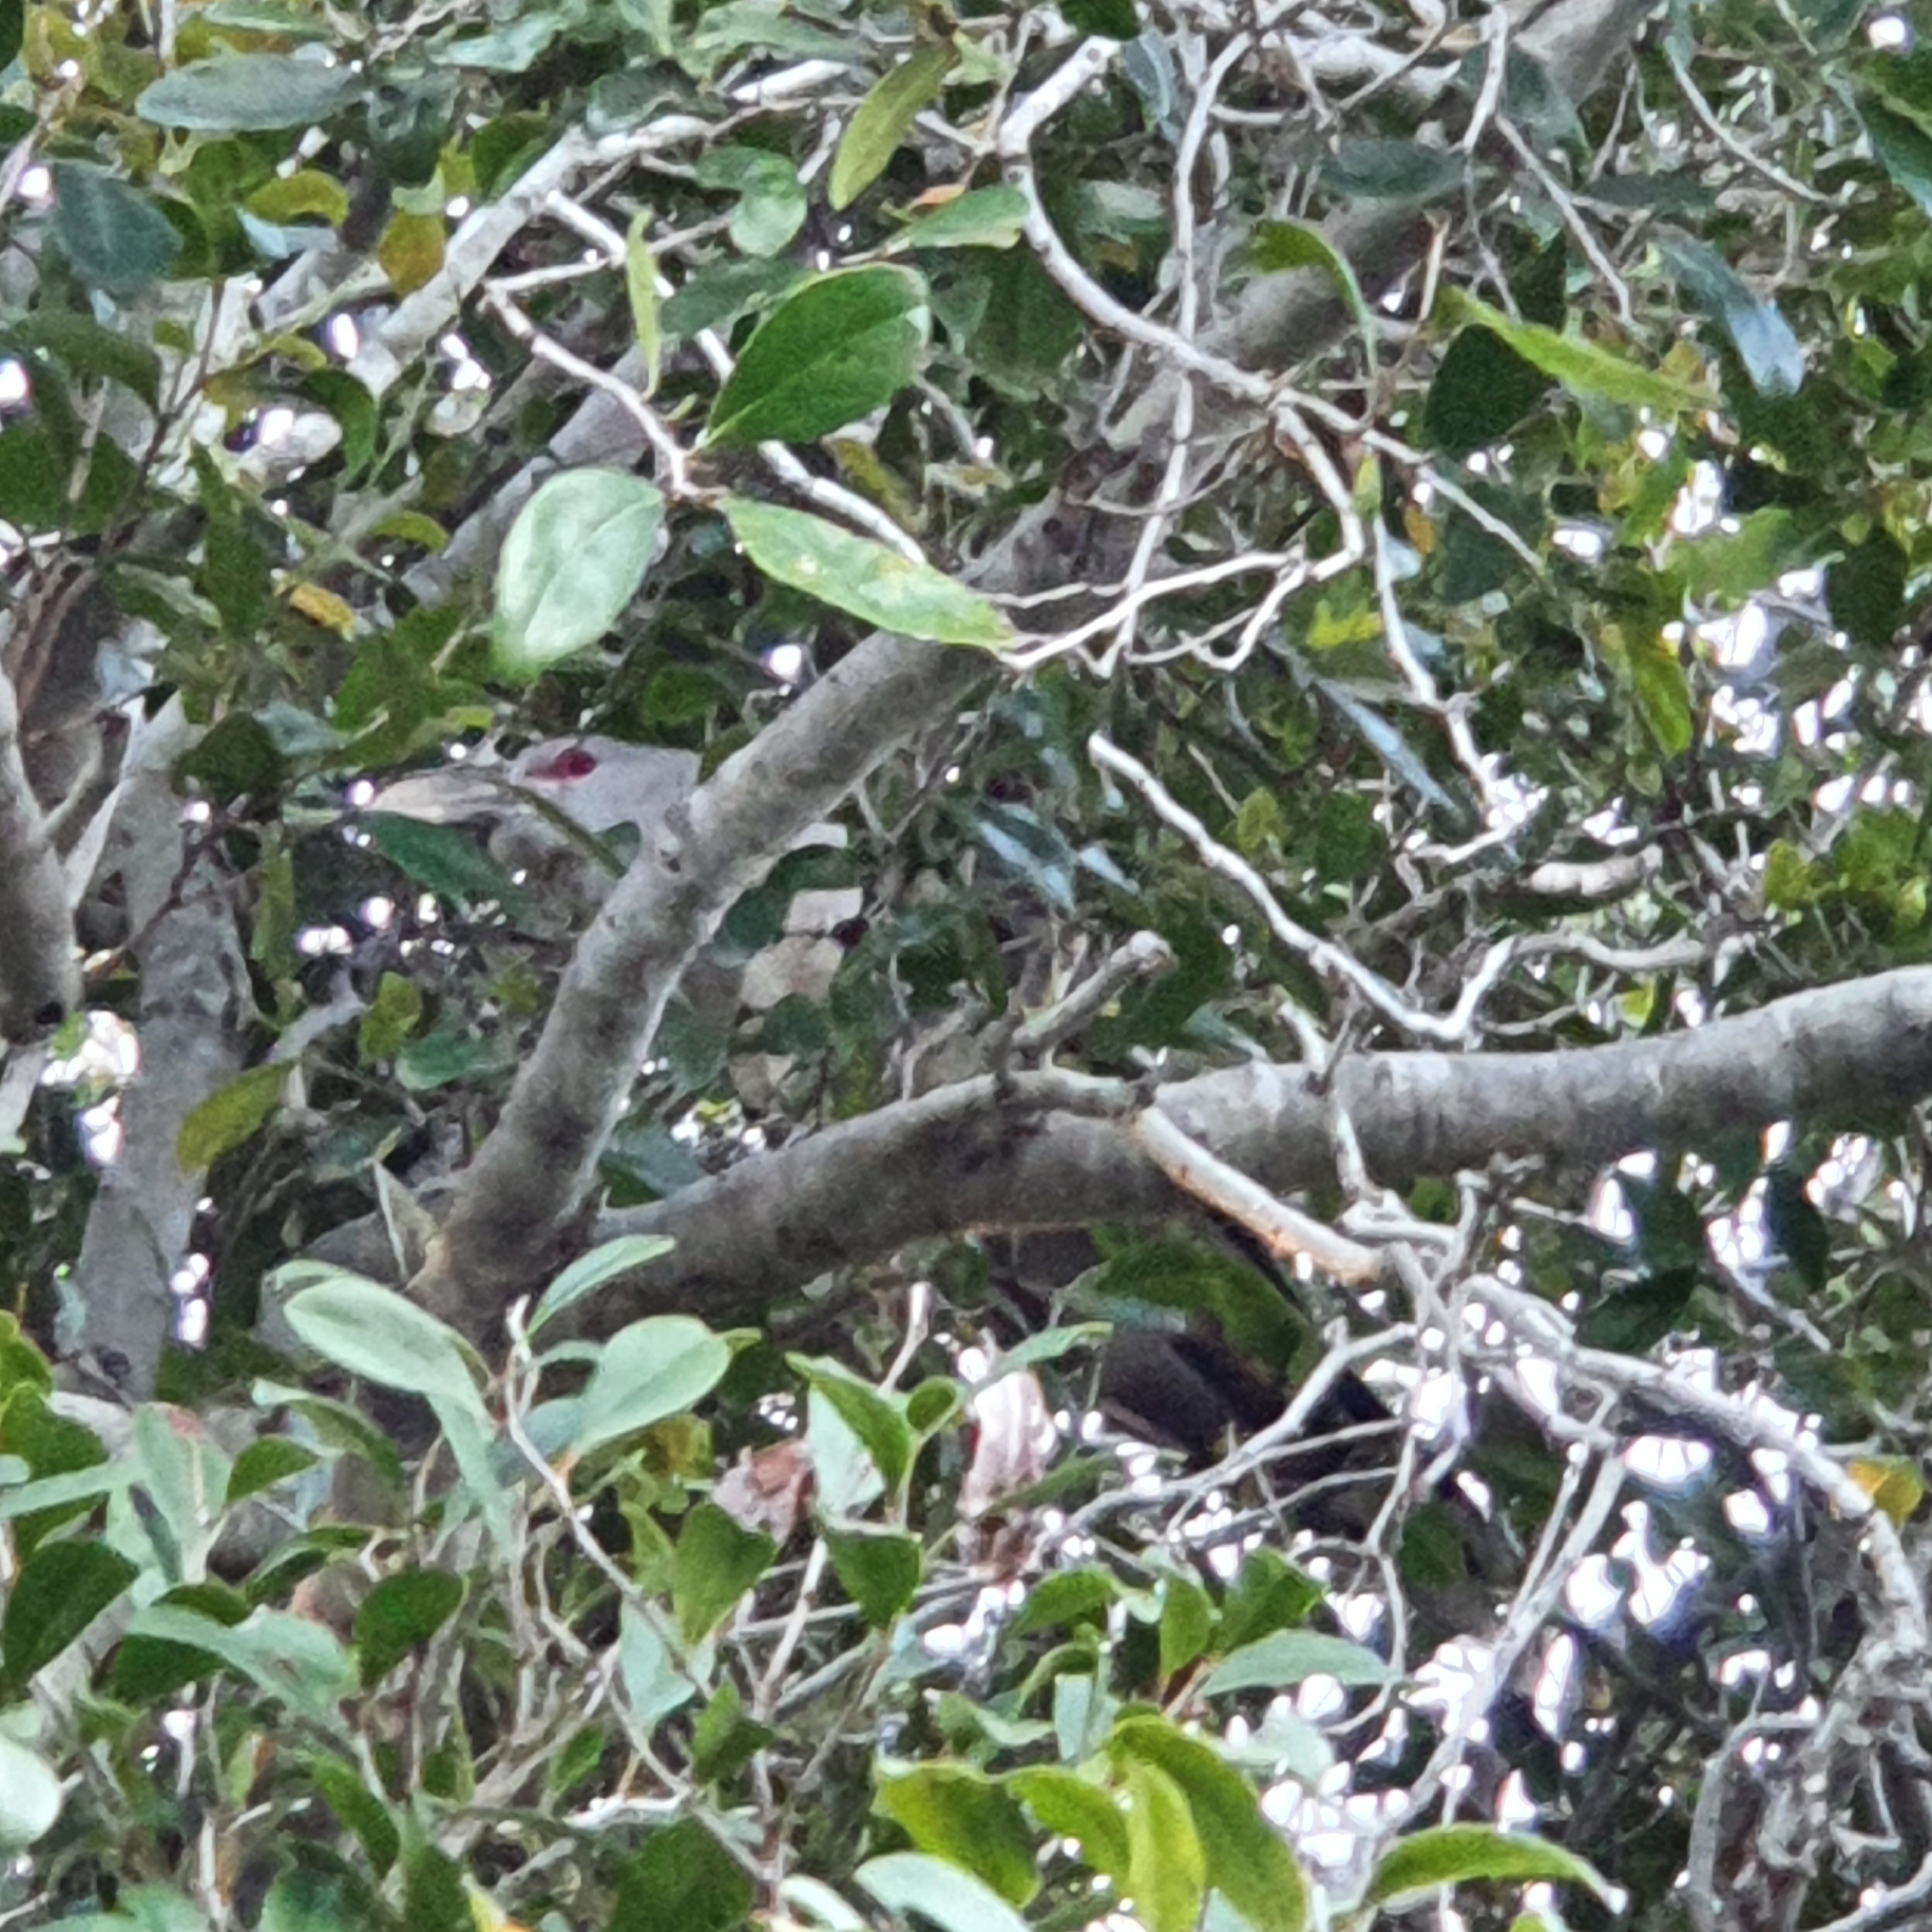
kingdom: Animalia
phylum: Chordata
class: Aves
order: Cuculiformes
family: Cuculidae
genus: Scythrops
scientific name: Scythrops novaehollandiae
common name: Channel-billed cuckoo
